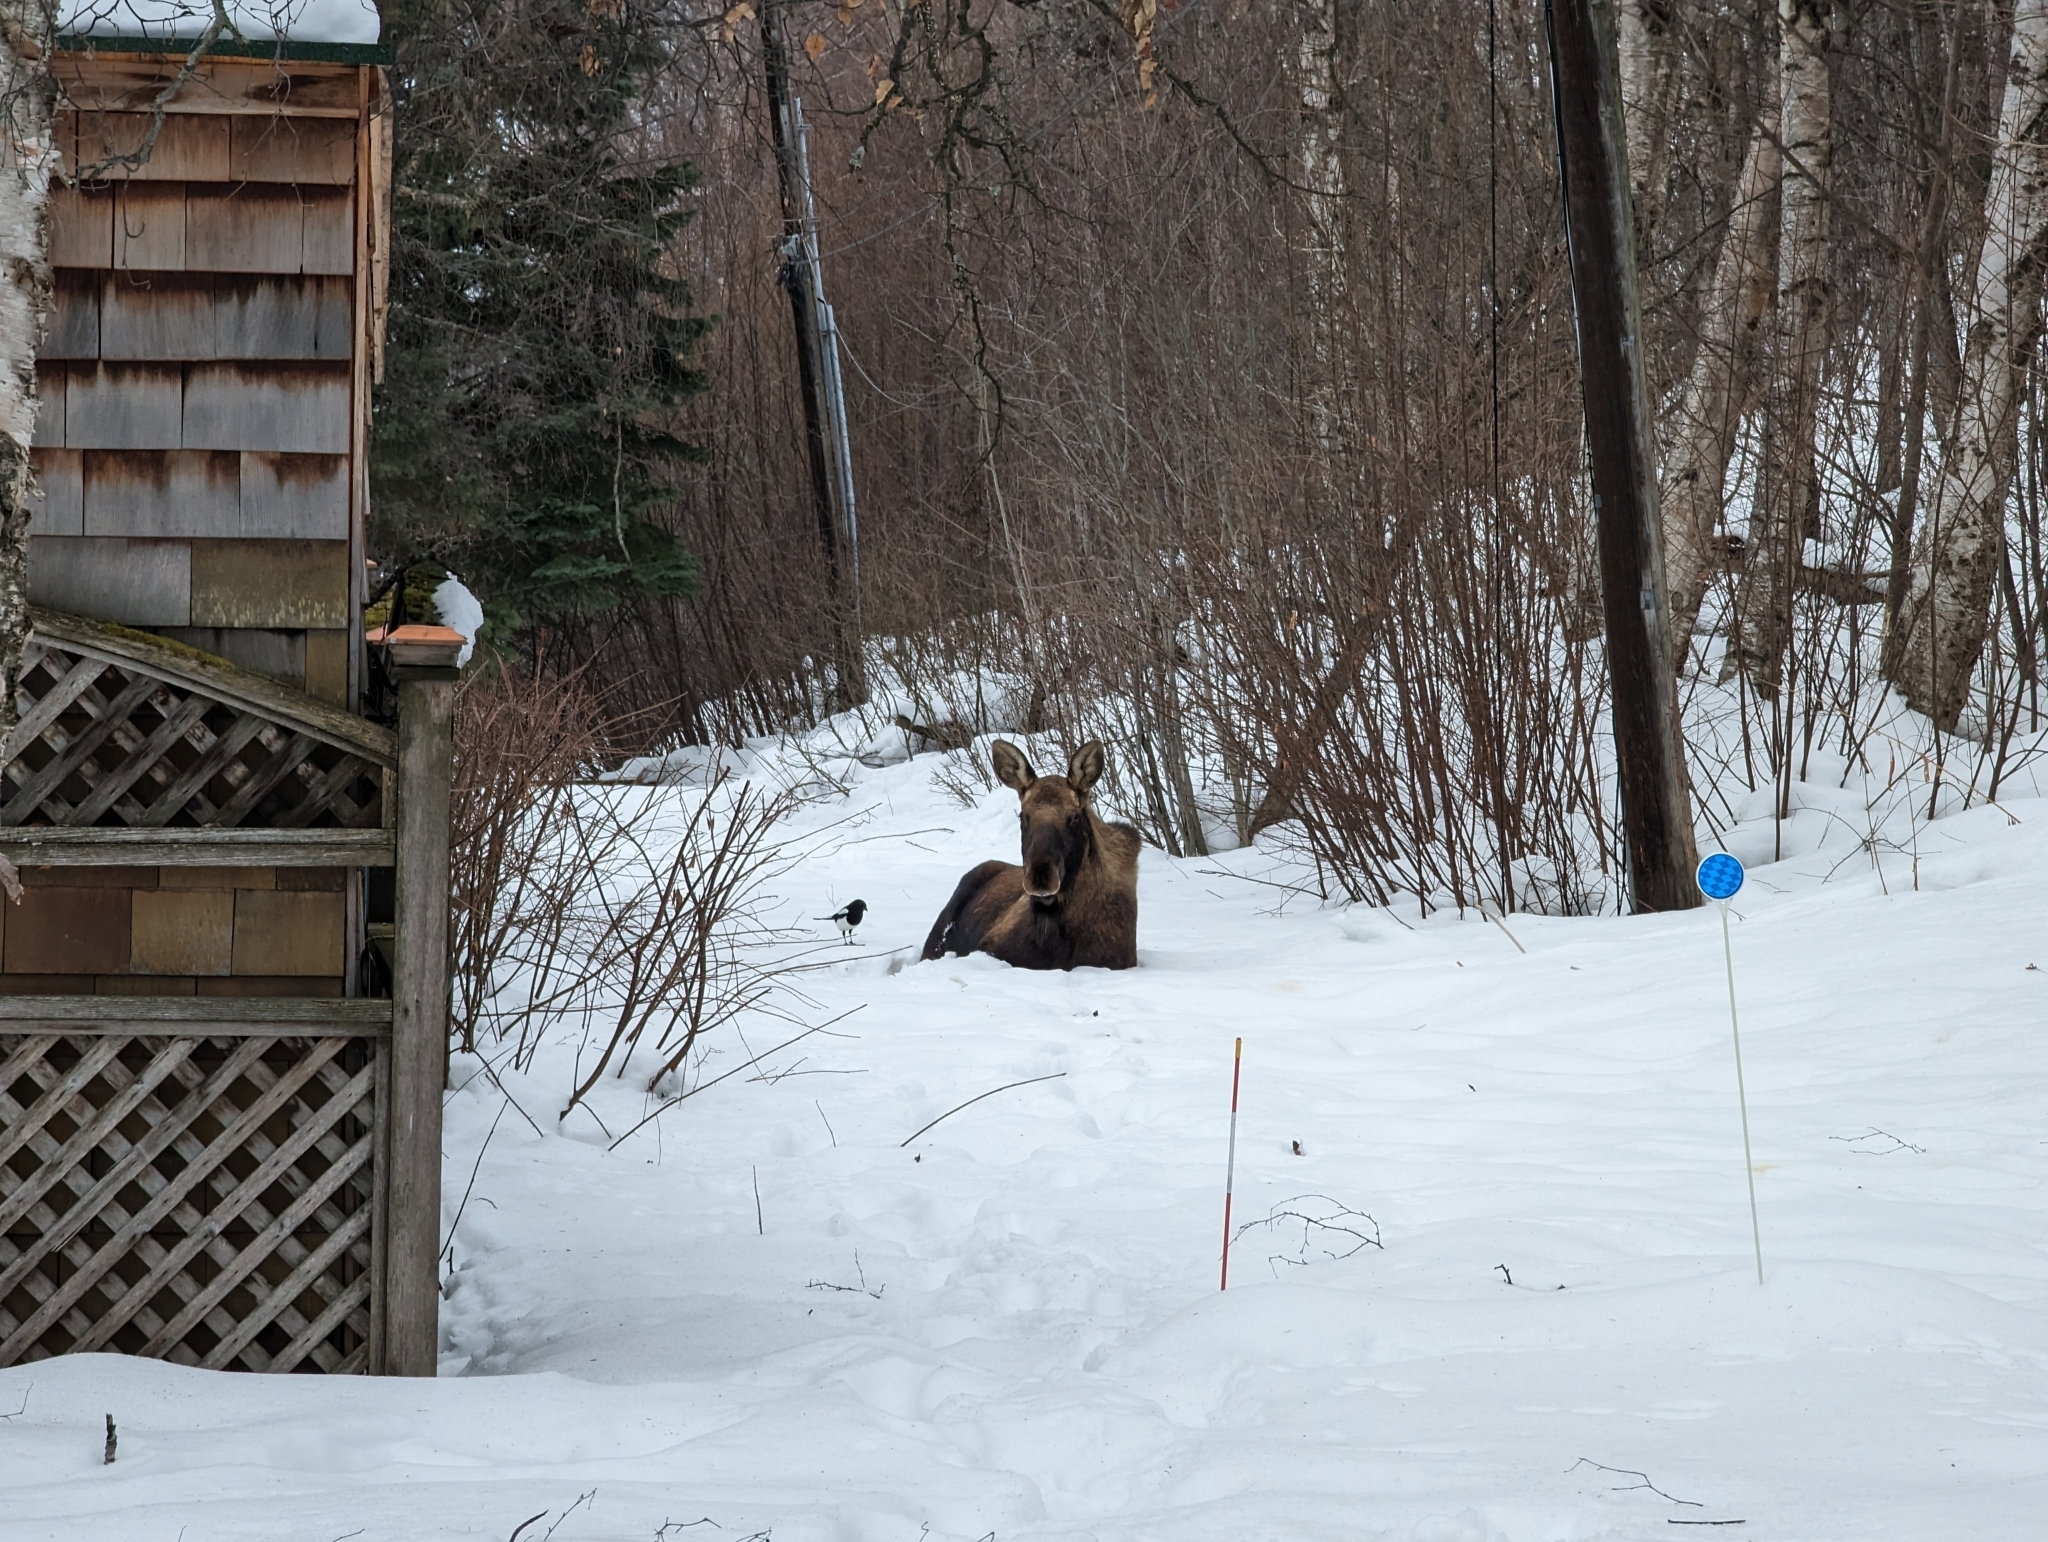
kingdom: Animalia
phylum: Chordata
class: Mammalia
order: Artiodactyla
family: Cervidae
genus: Alces
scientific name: Alces alces
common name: Moose
